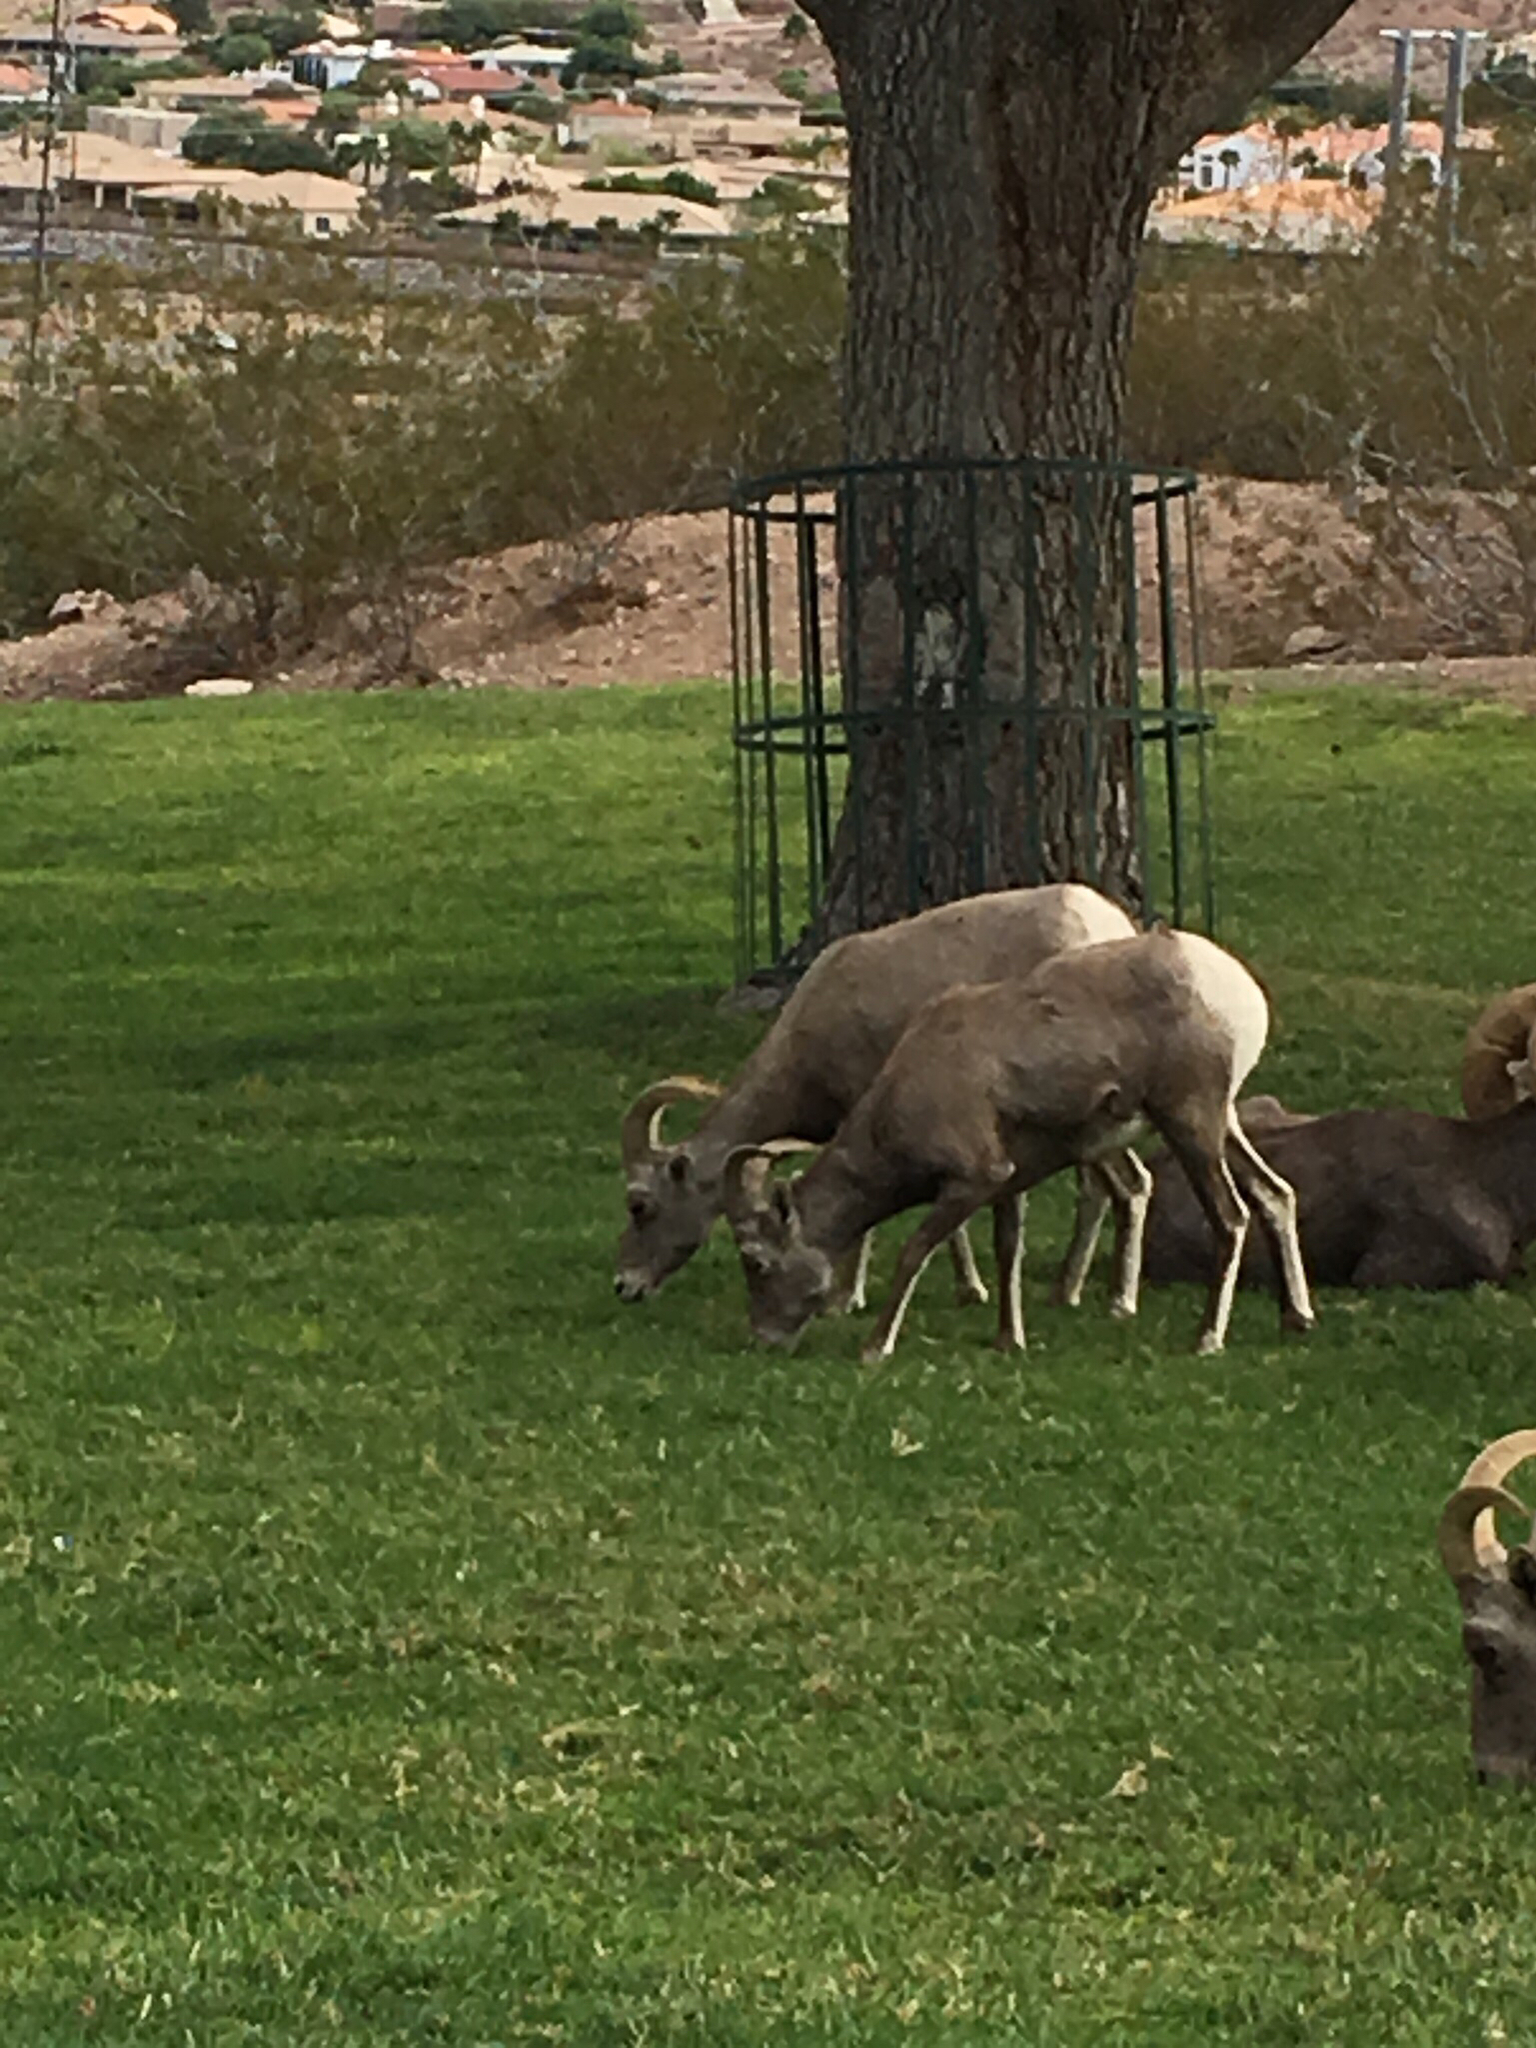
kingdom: Animalia
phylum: Chordata
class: Mammalia
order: Artiodactyla
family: Bovidae
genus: Ovis
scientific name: Ovis canadensis
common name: Bighorn sheep
